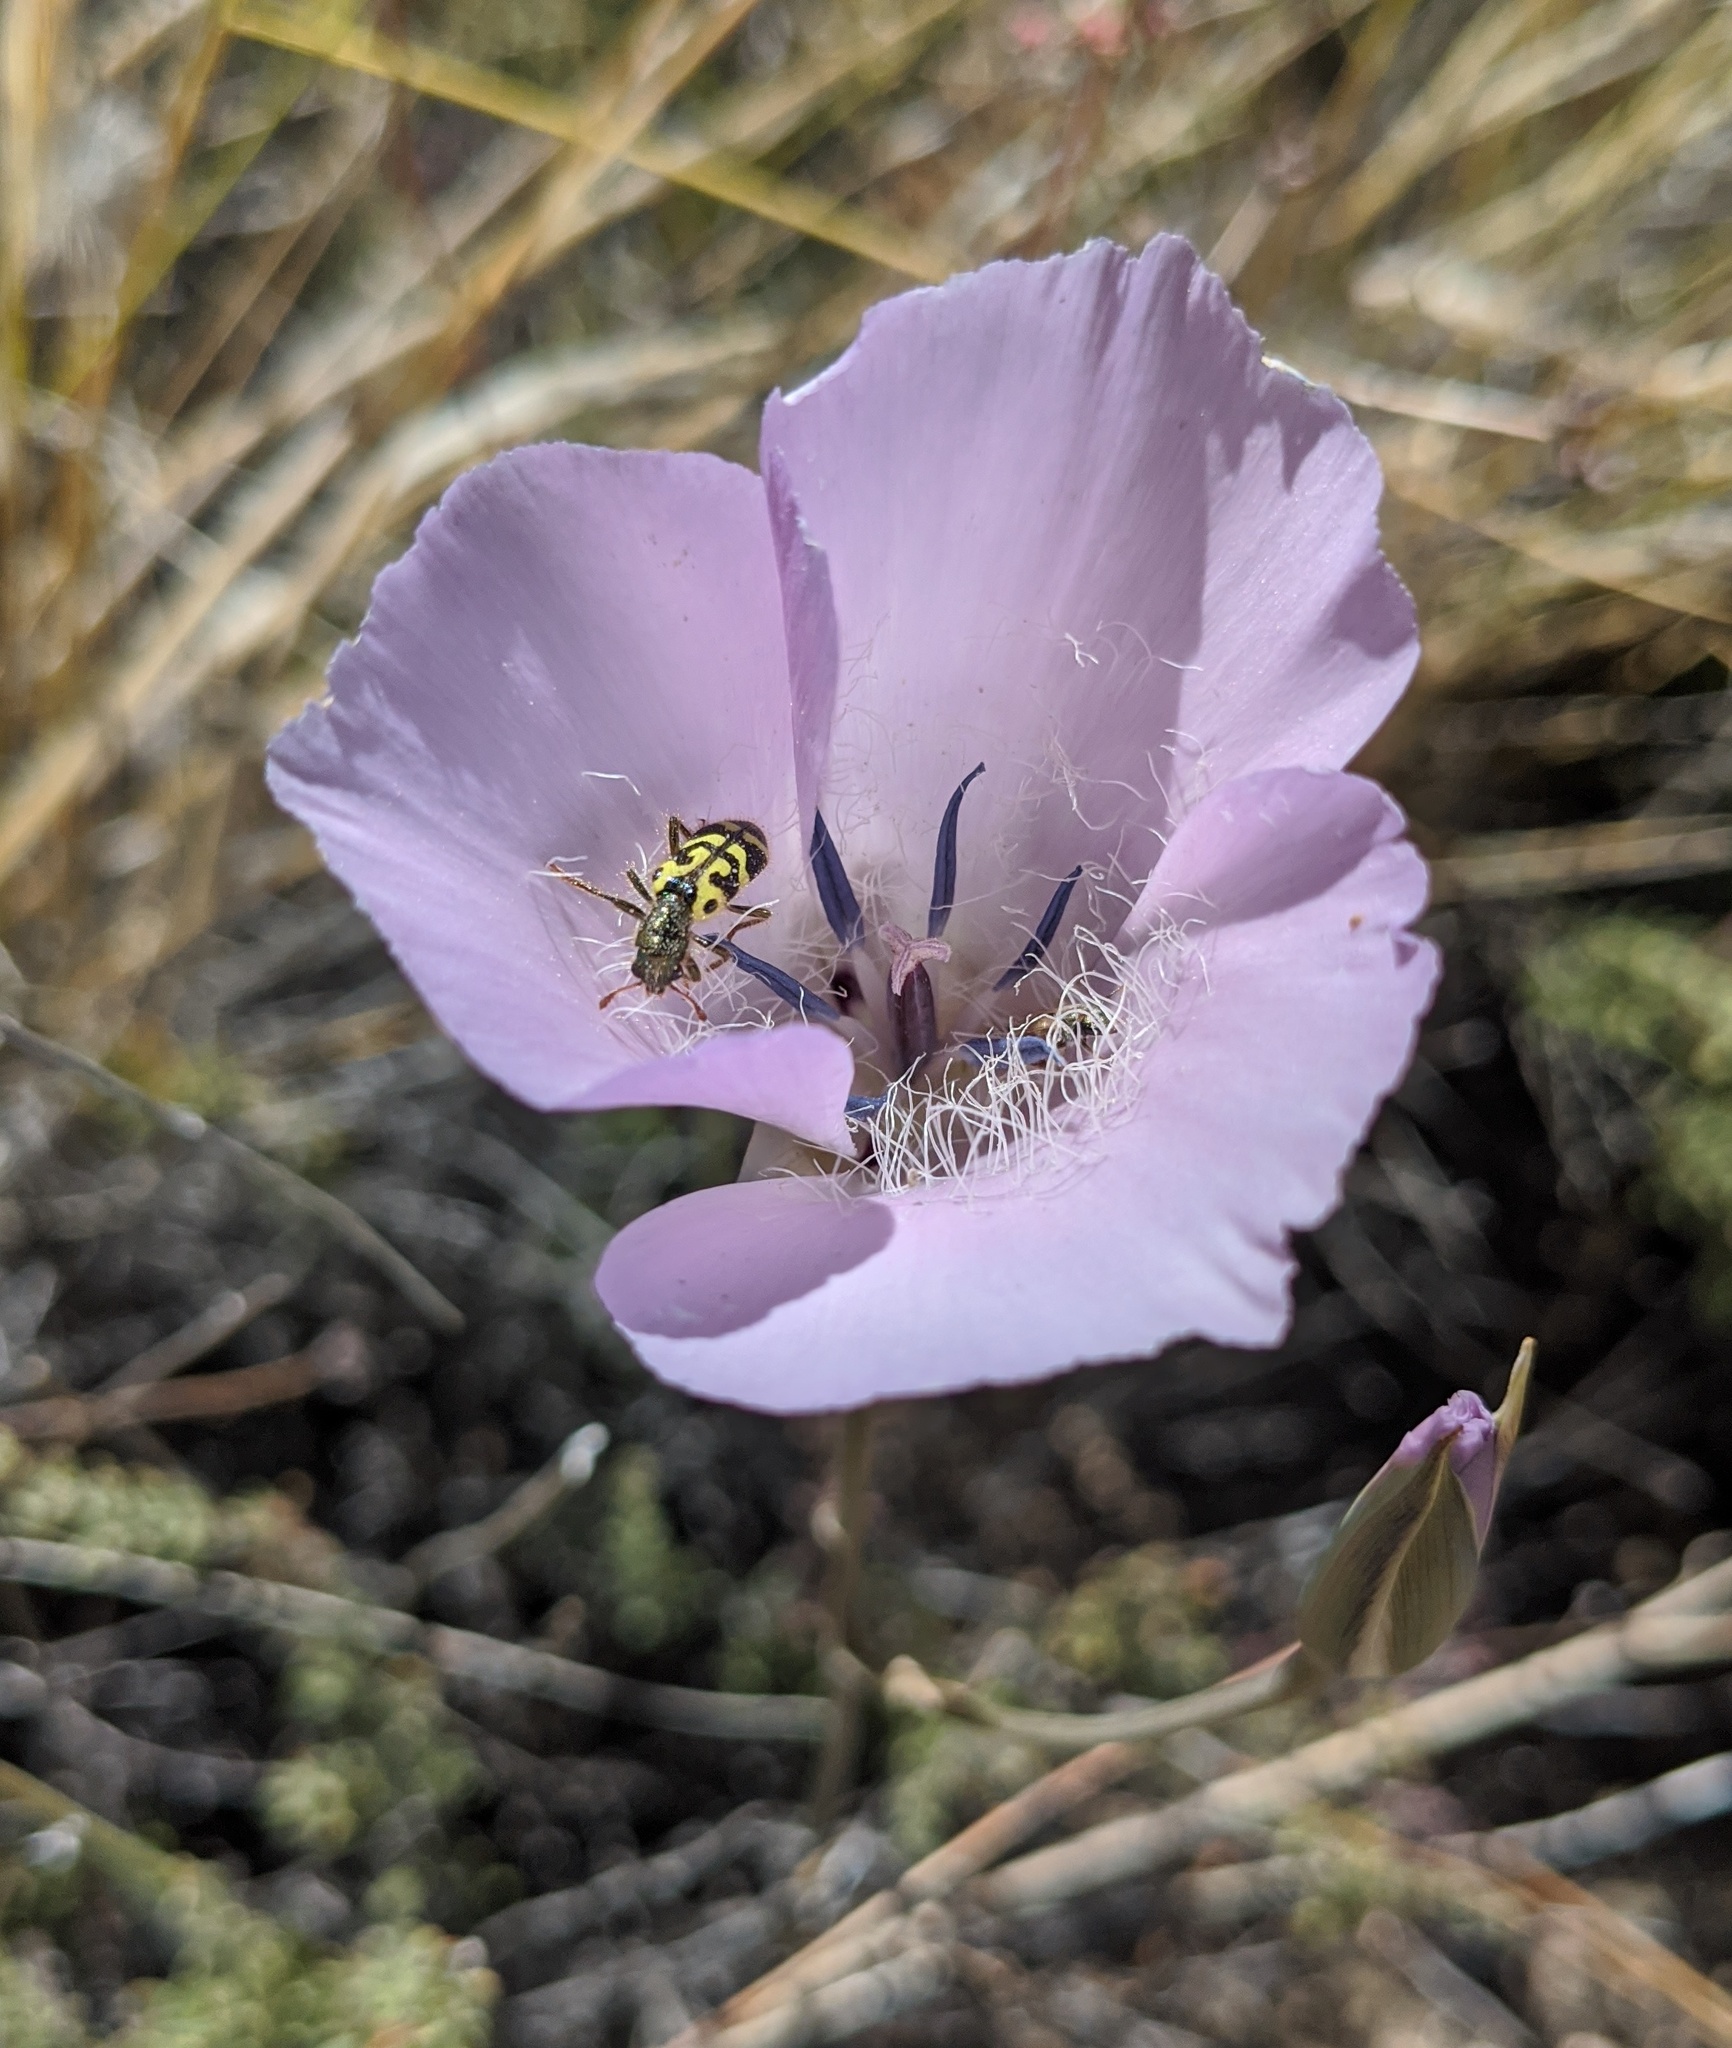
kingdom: Plantae
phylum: Tracheophyta
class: Liliopsida
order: Liliales
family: Liliaceae
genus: Calochortus
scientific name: Calochortus splendens
